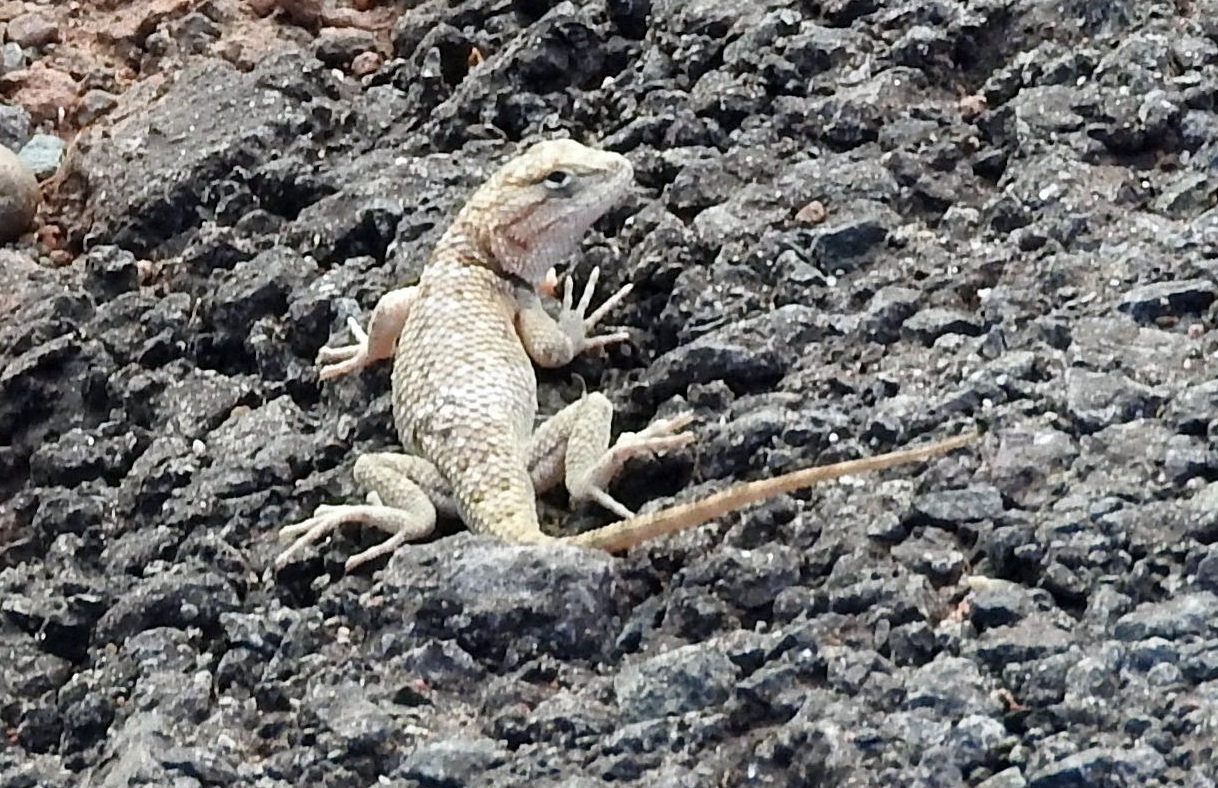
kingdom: Animalia
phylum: Chordata
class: Squamata
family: Phrynosomatidae
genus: Sceloporus
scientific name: Sceloporus magister
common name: Desert spiny lizard
